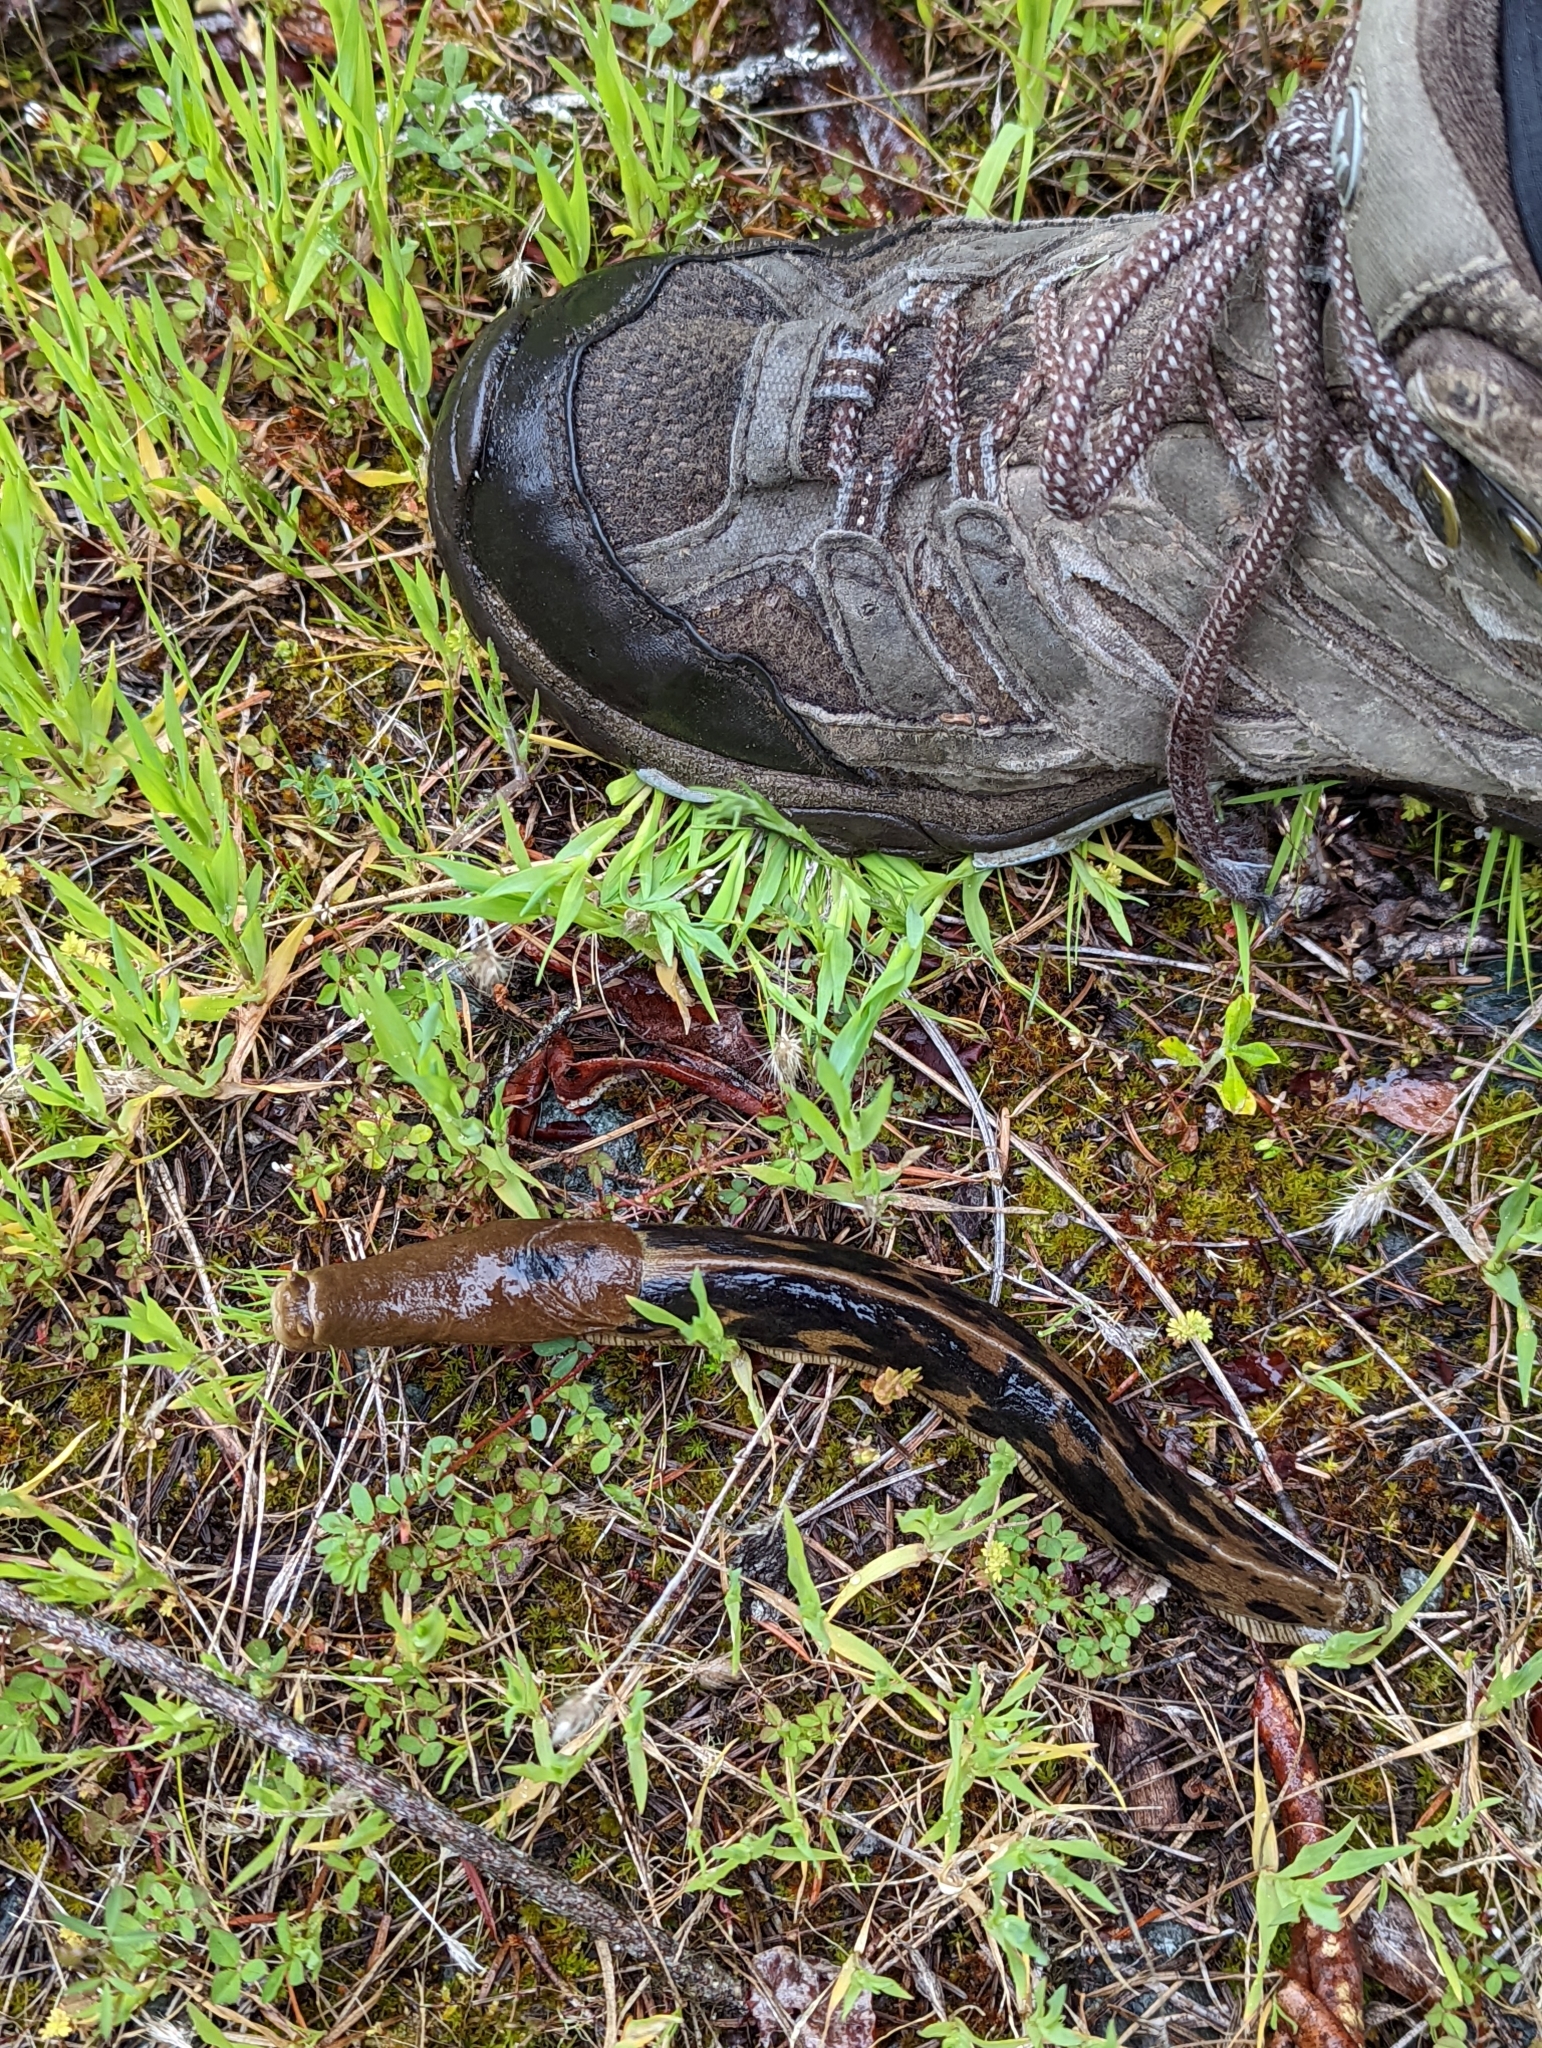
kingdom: Animalia
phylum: Mollusca
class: Gastropoda
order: Stylommatophora
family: Ariolimacidae
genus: Ariolimax
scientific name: Ariolimax columbianus
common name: Pacific banana slug
